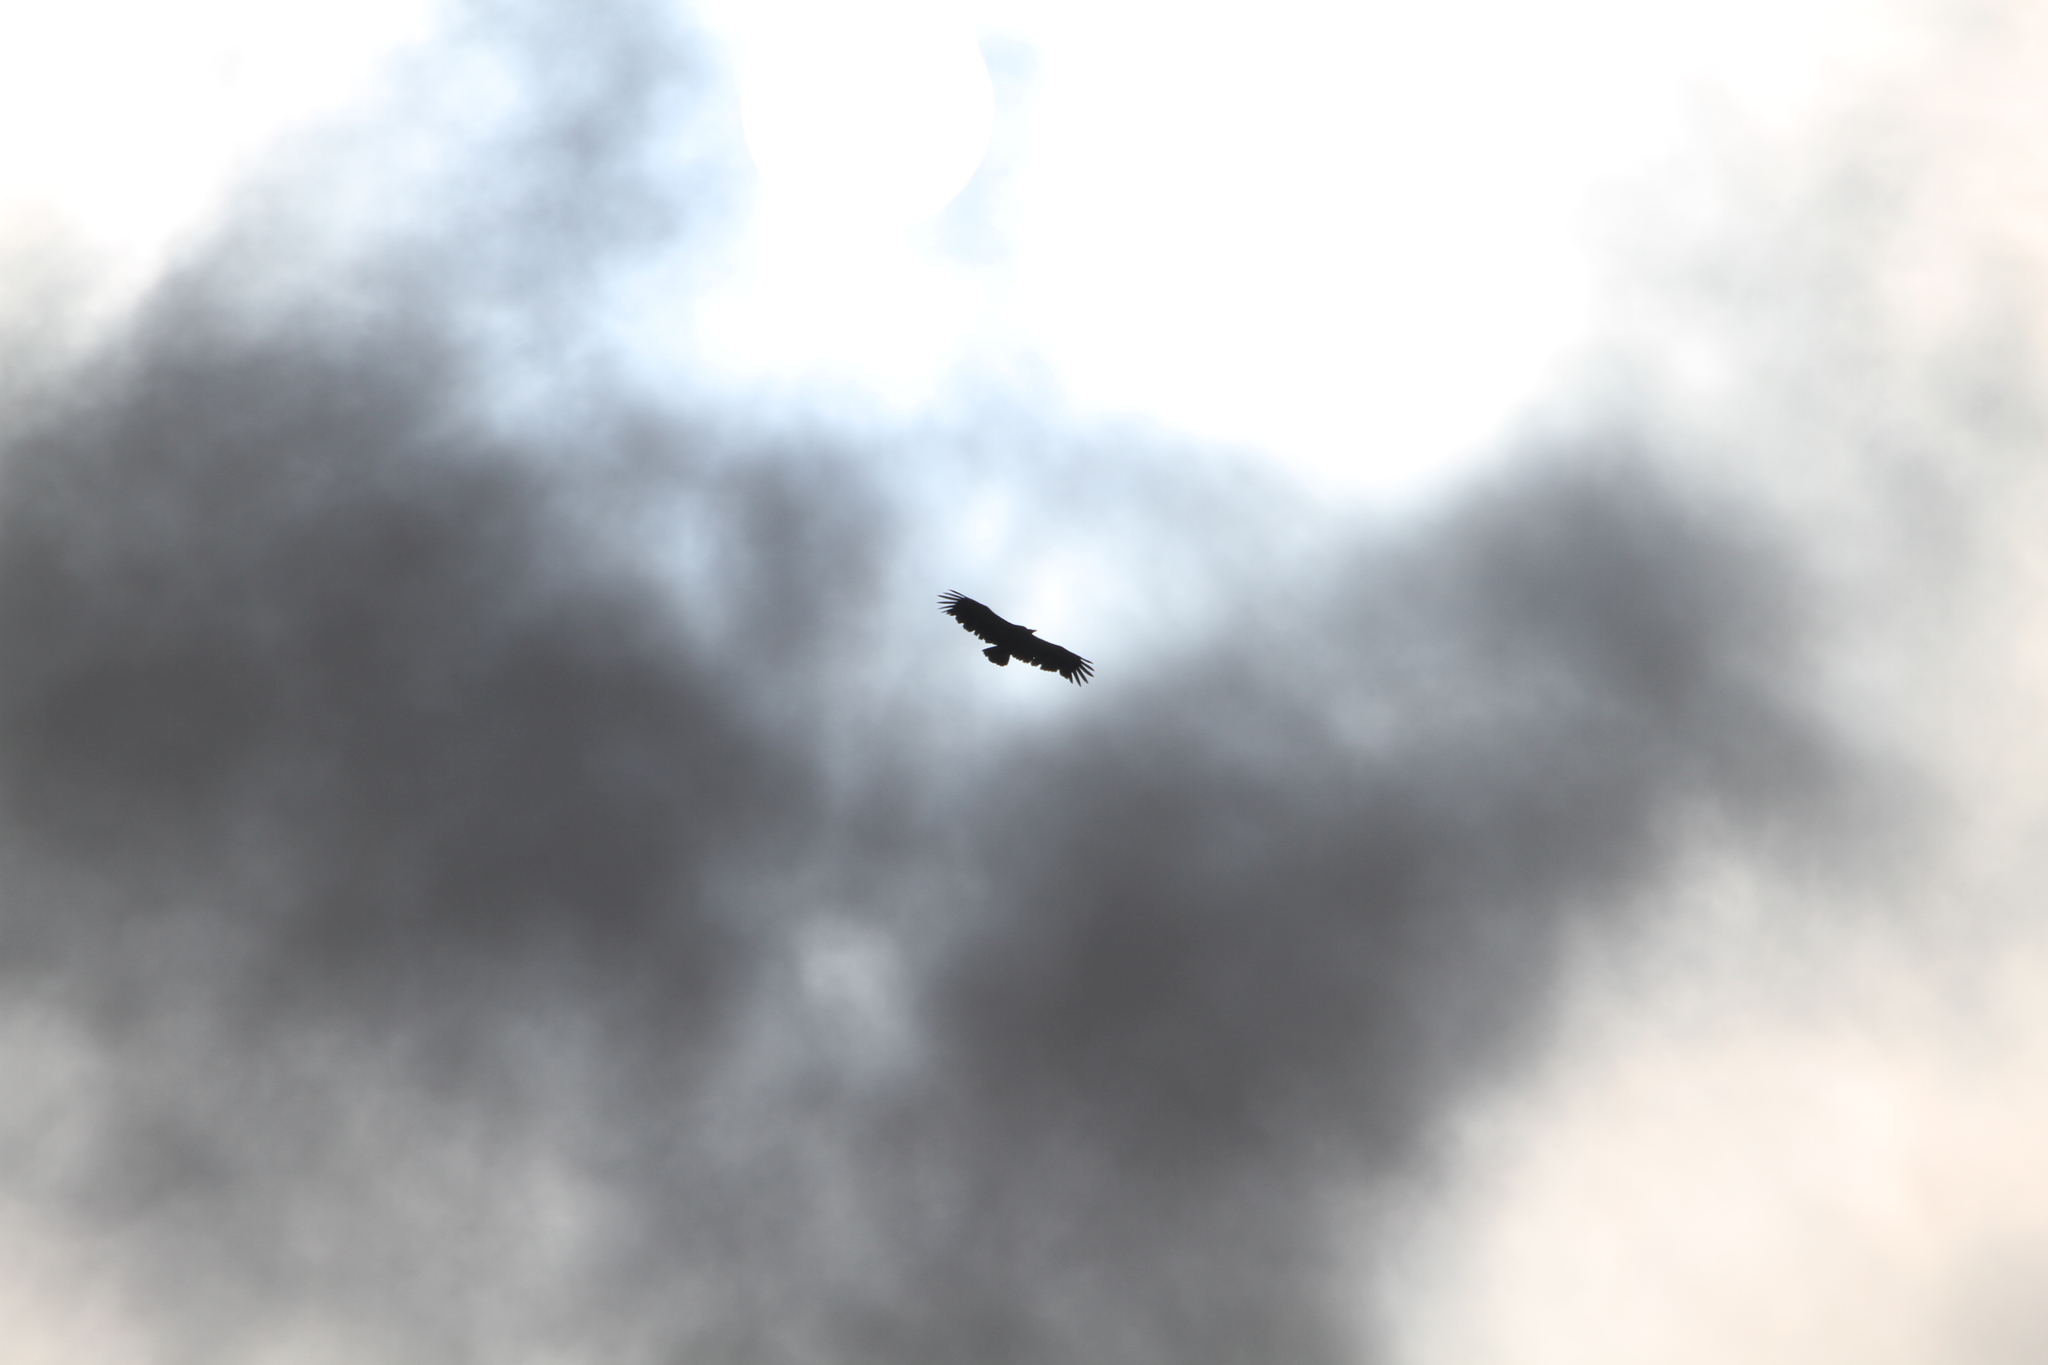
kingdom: Animalia
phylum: Chordata
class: Aves
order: Accipitriformes
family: Accipitridae
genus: Gyps
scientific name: Gyps fulvus
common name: Griffon vulture
